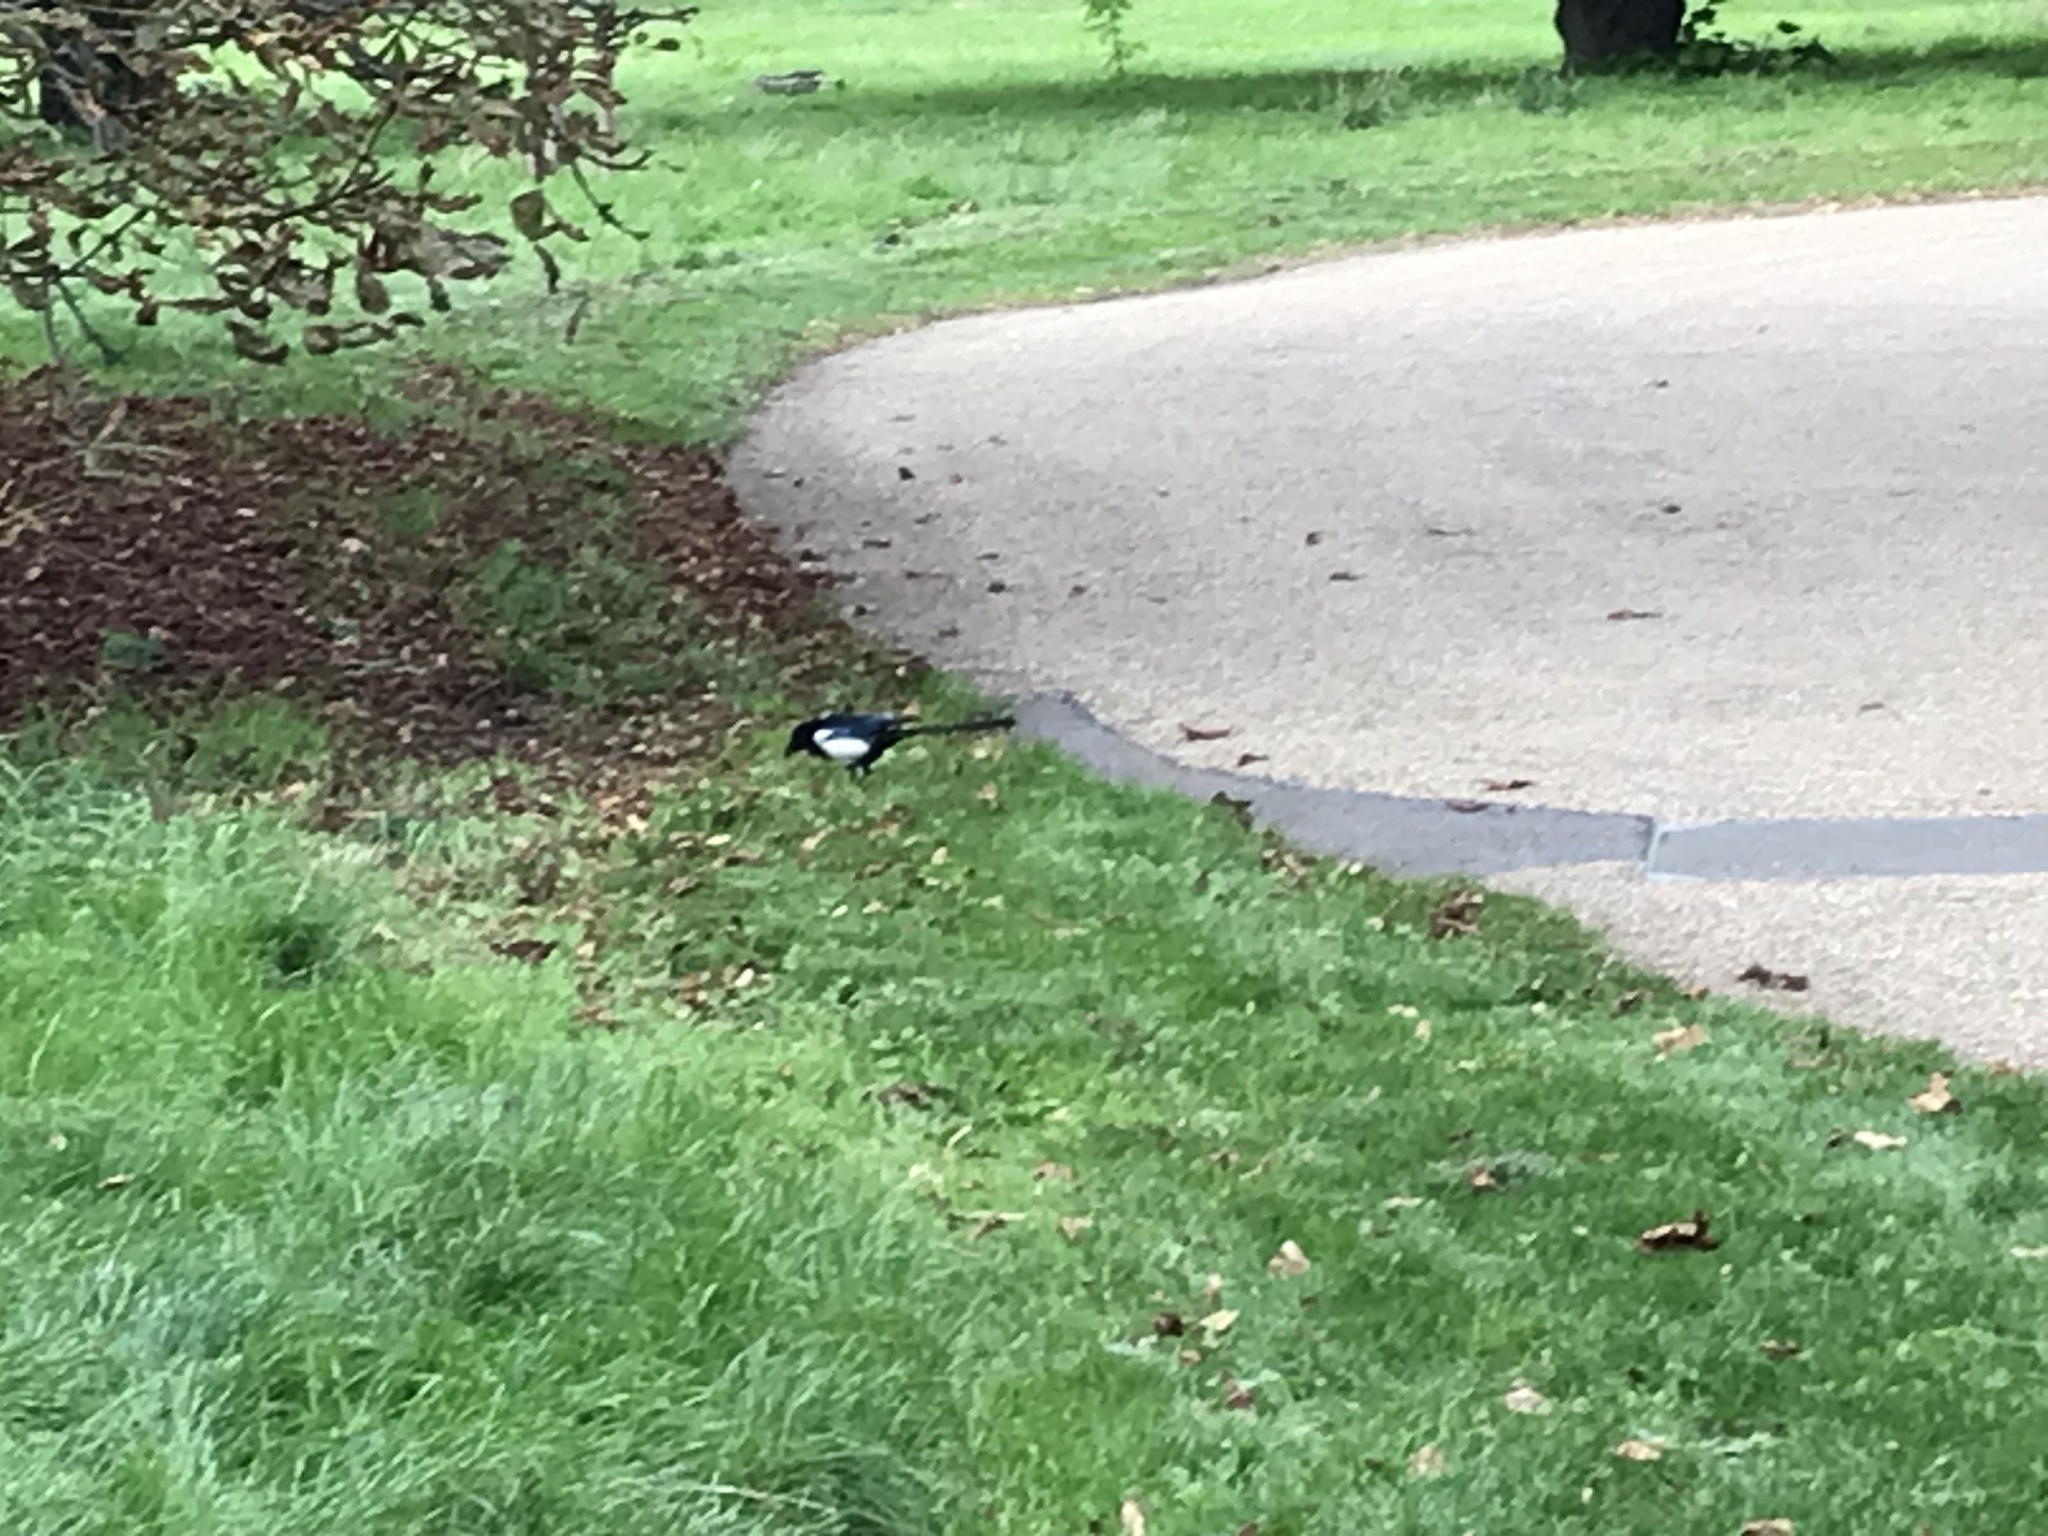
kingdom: Animalia
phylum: Chordata
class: Aves
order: Passeriformes
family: Corvidae
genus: Pica
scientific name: Pica pica
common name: Eurasian magpie
